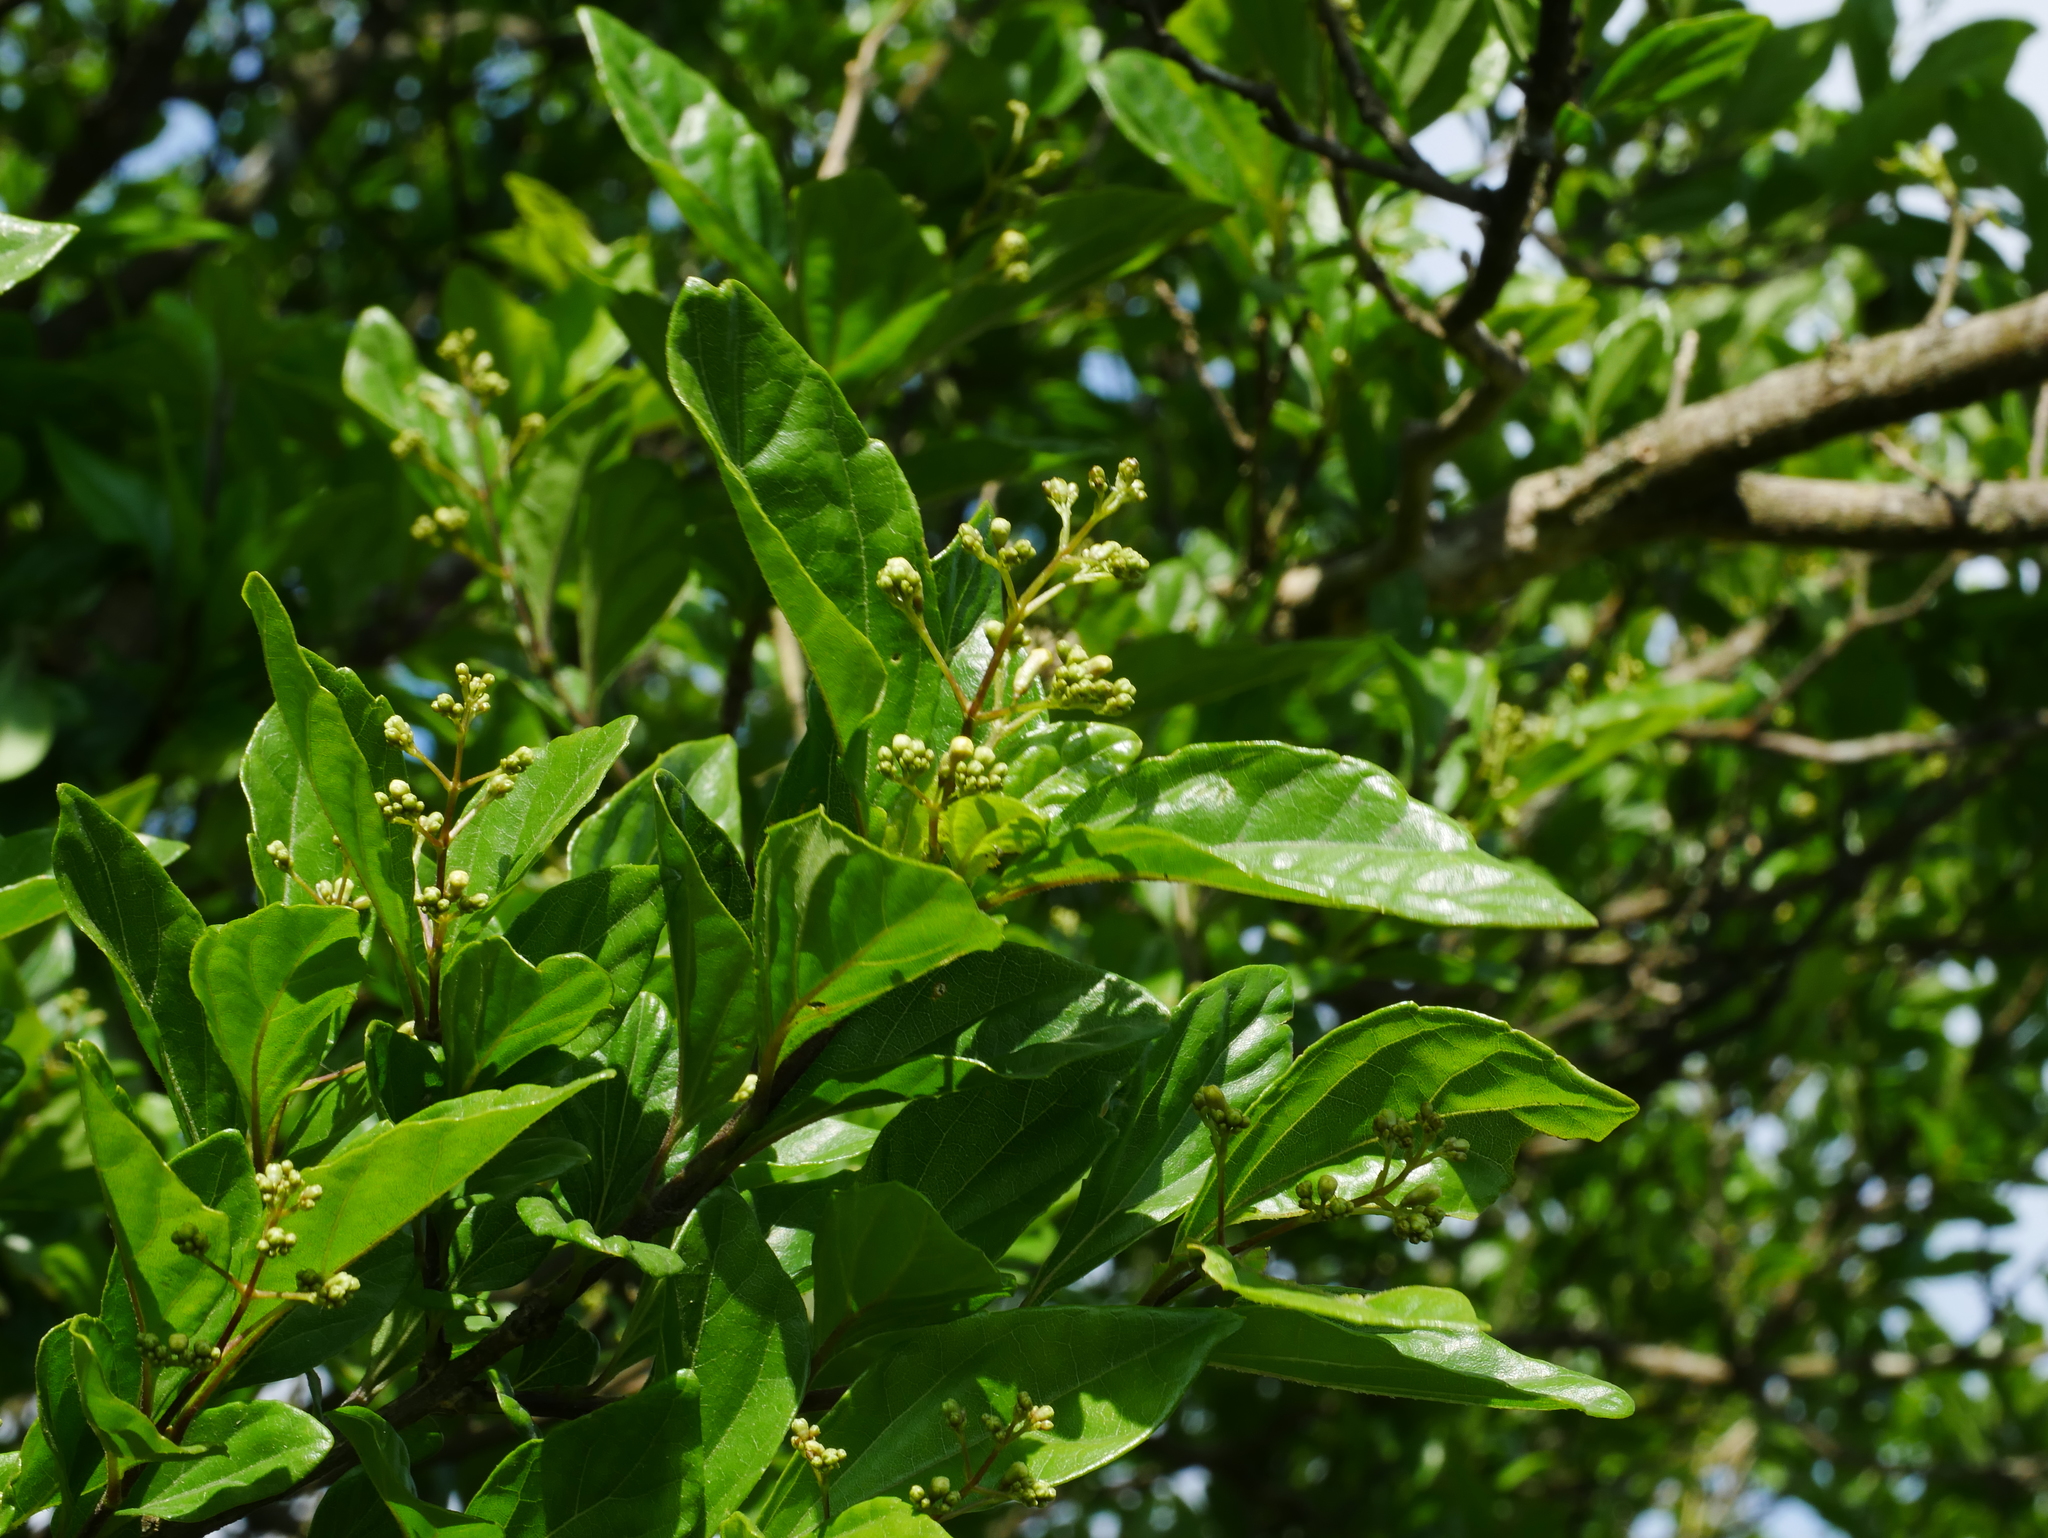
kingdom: Plantae
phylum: Tracheophyta
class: Magnoliopsida
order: Lamiales
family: Lamiaceae
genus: Premna
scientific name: Premna microphylla
